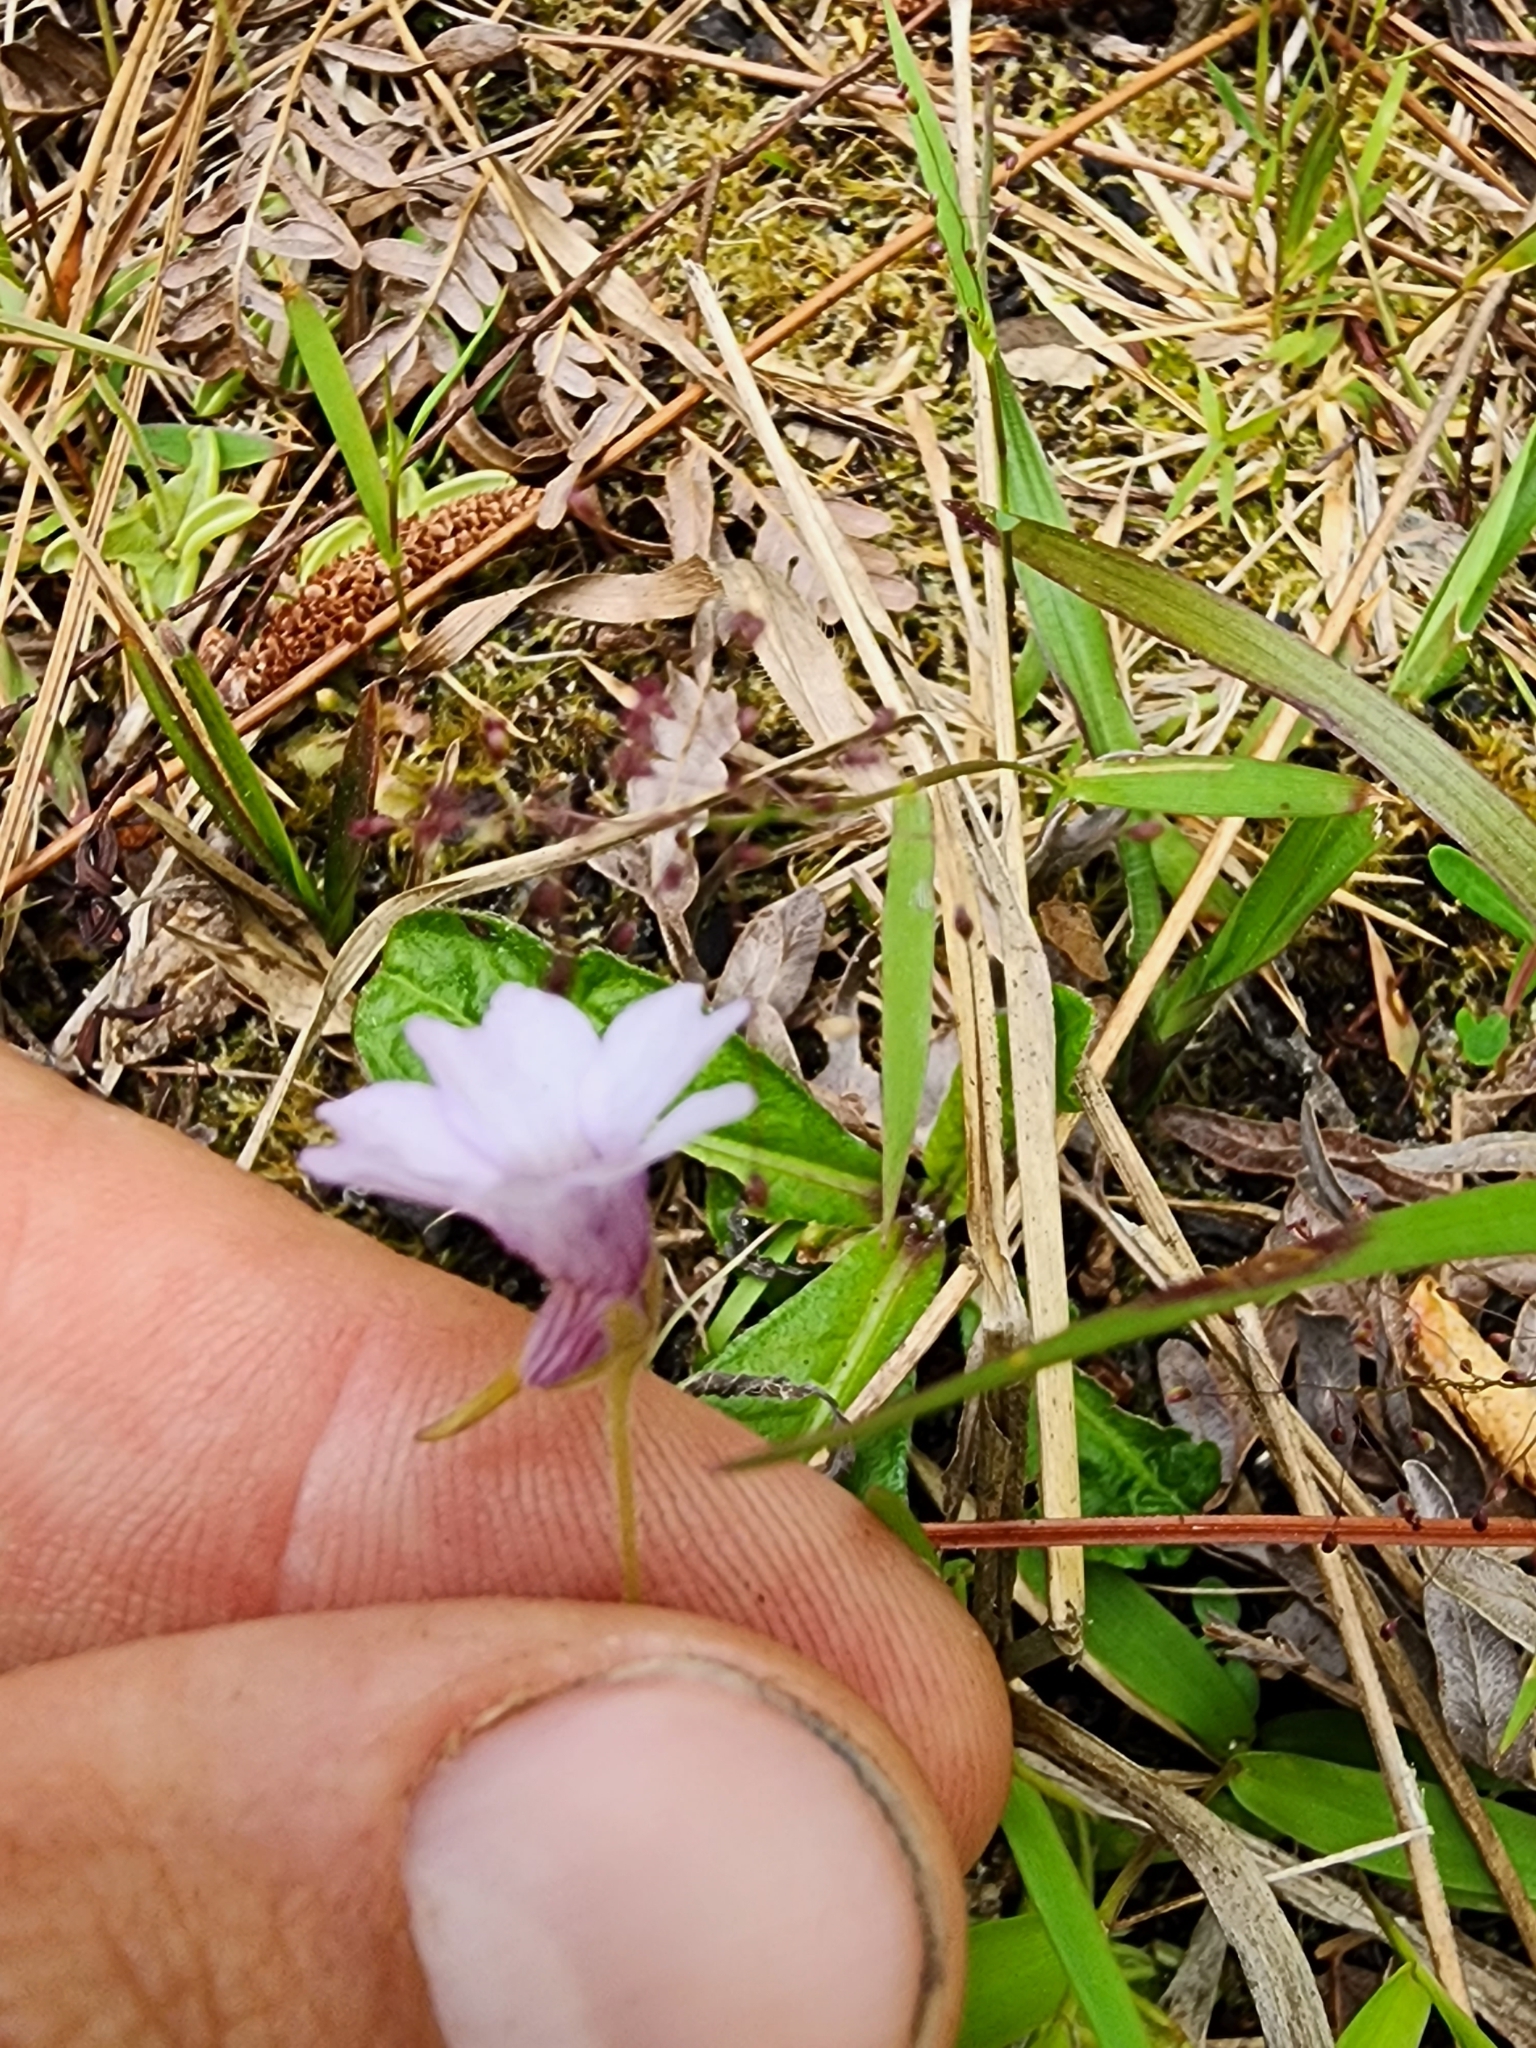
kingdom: Plantae
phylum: Tracheophyta
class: Magnoliopsida
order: Lamiales
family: Lentibulariaceae
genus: Pinguicula
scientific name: Pinguicula pumila
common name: Small butterwort
